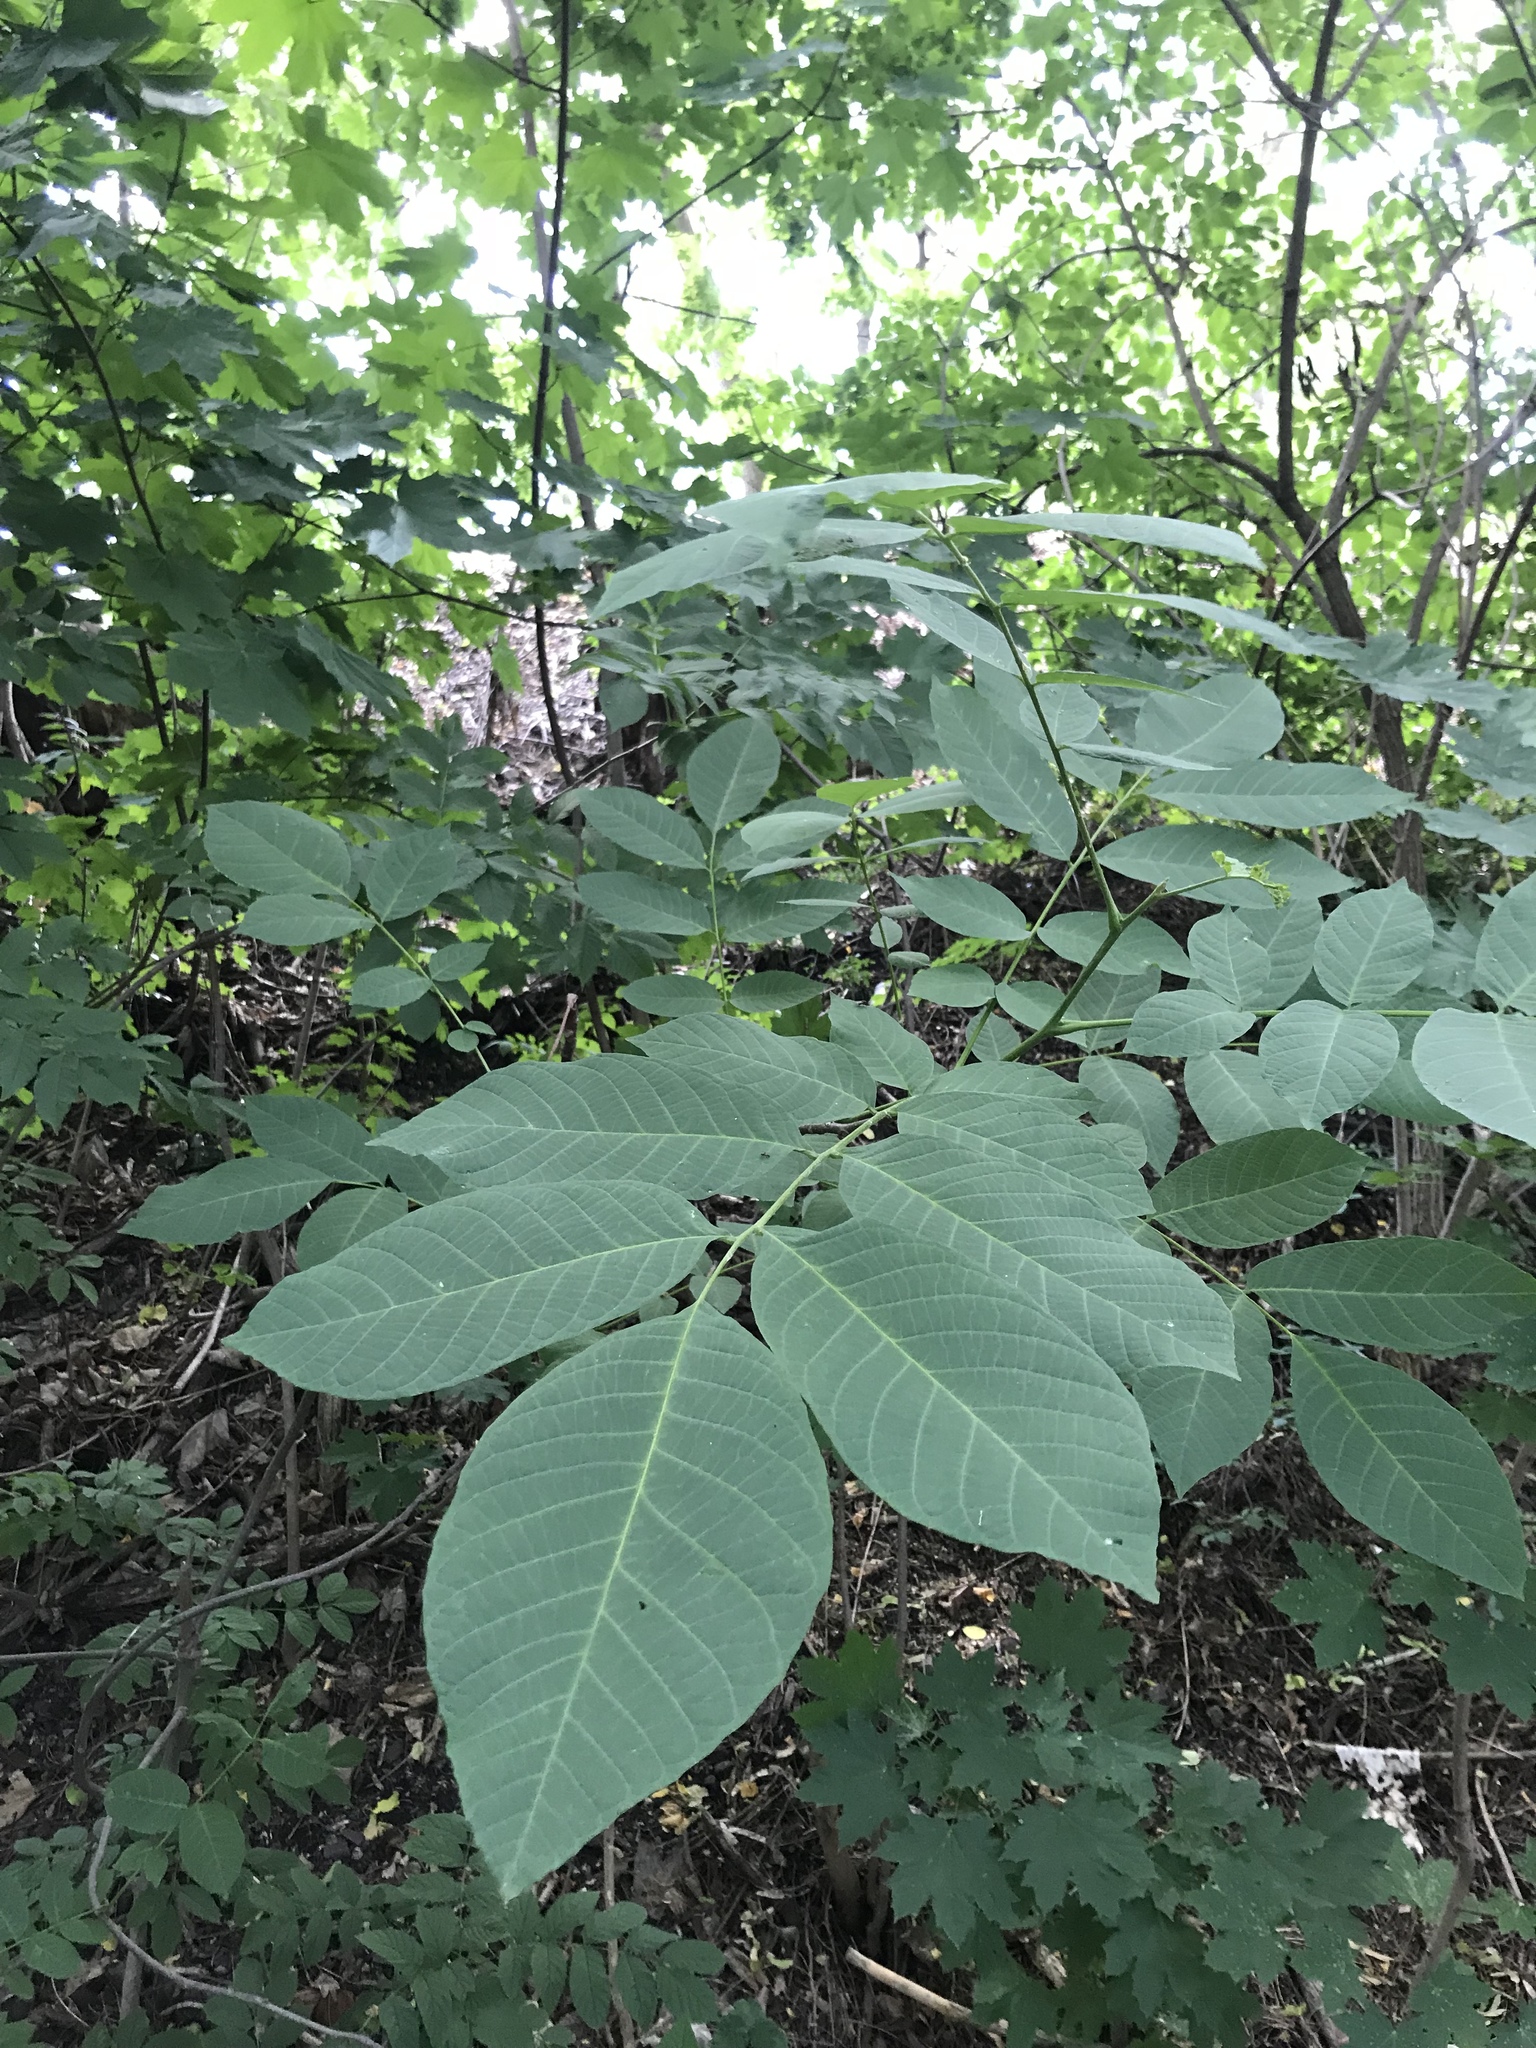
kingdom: Plantae
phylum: Tracheophyta
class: Magnoliopsida
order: Fagales
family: Juglandaceae
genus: Juglans
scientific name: Juglans regia
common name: Walnut
